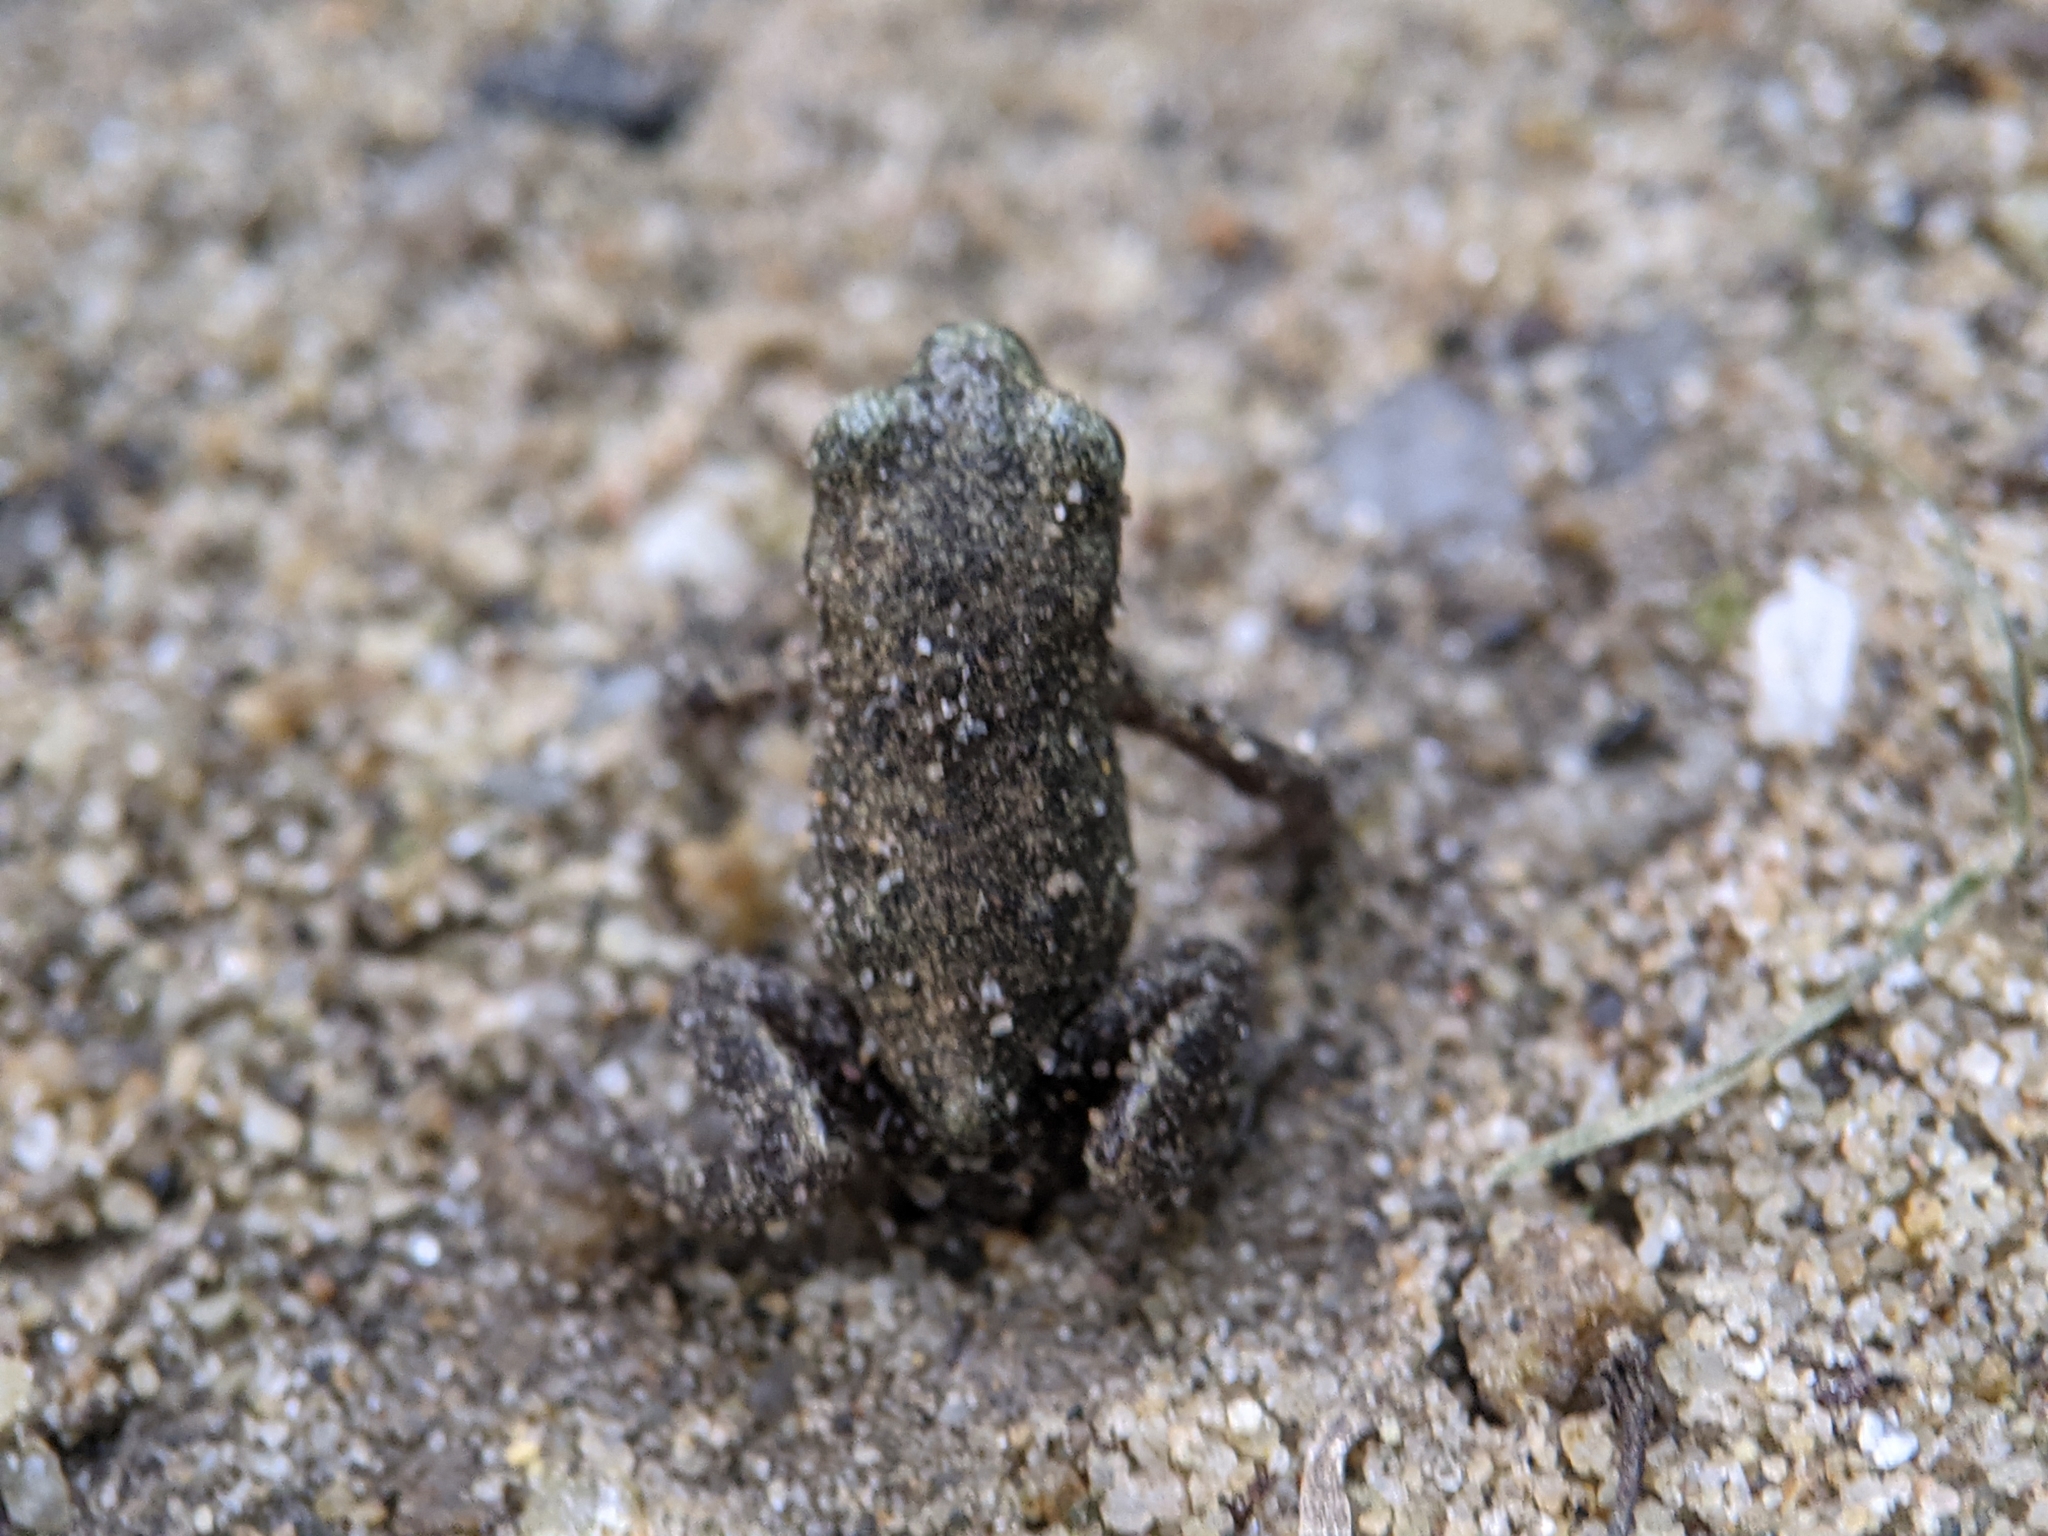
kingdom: Animalia
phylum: Chordata
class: Amphibia
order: Anura
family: Bufonidae
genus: Bufo
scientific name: Bufo bufo
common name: Common toad
